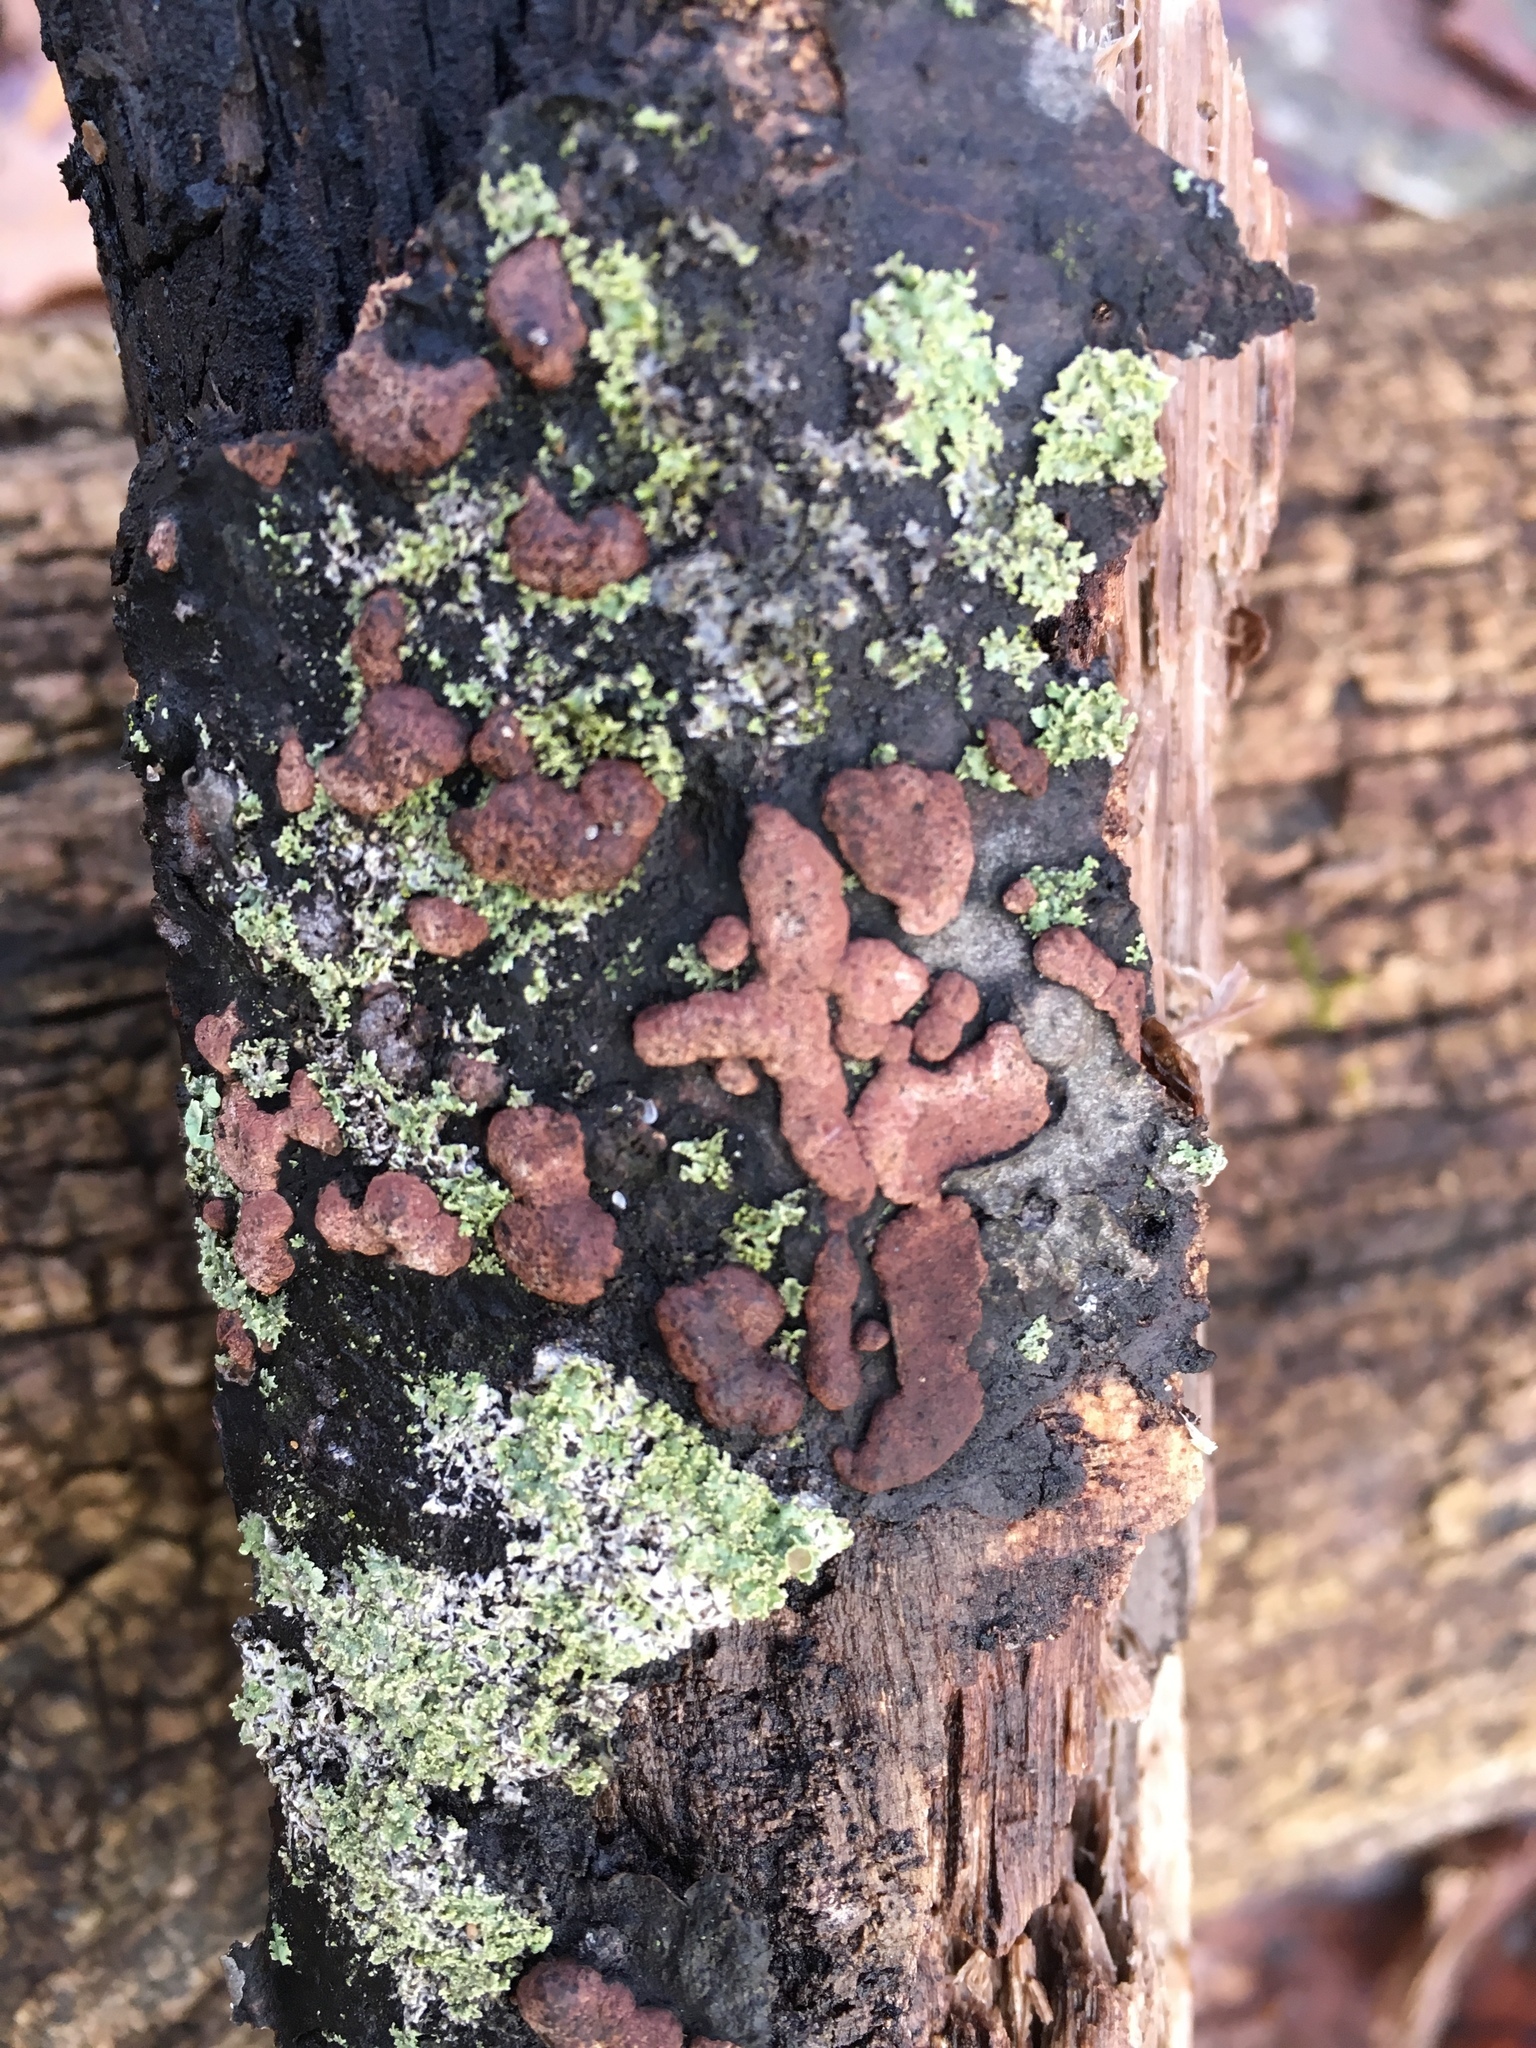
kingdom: Fungi
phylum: Ascomycota
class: Lecanoromycetes
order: Caliciales
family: Physciaceae
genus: Physcia
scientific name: Physcia millegrana
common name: Rosette lichen
